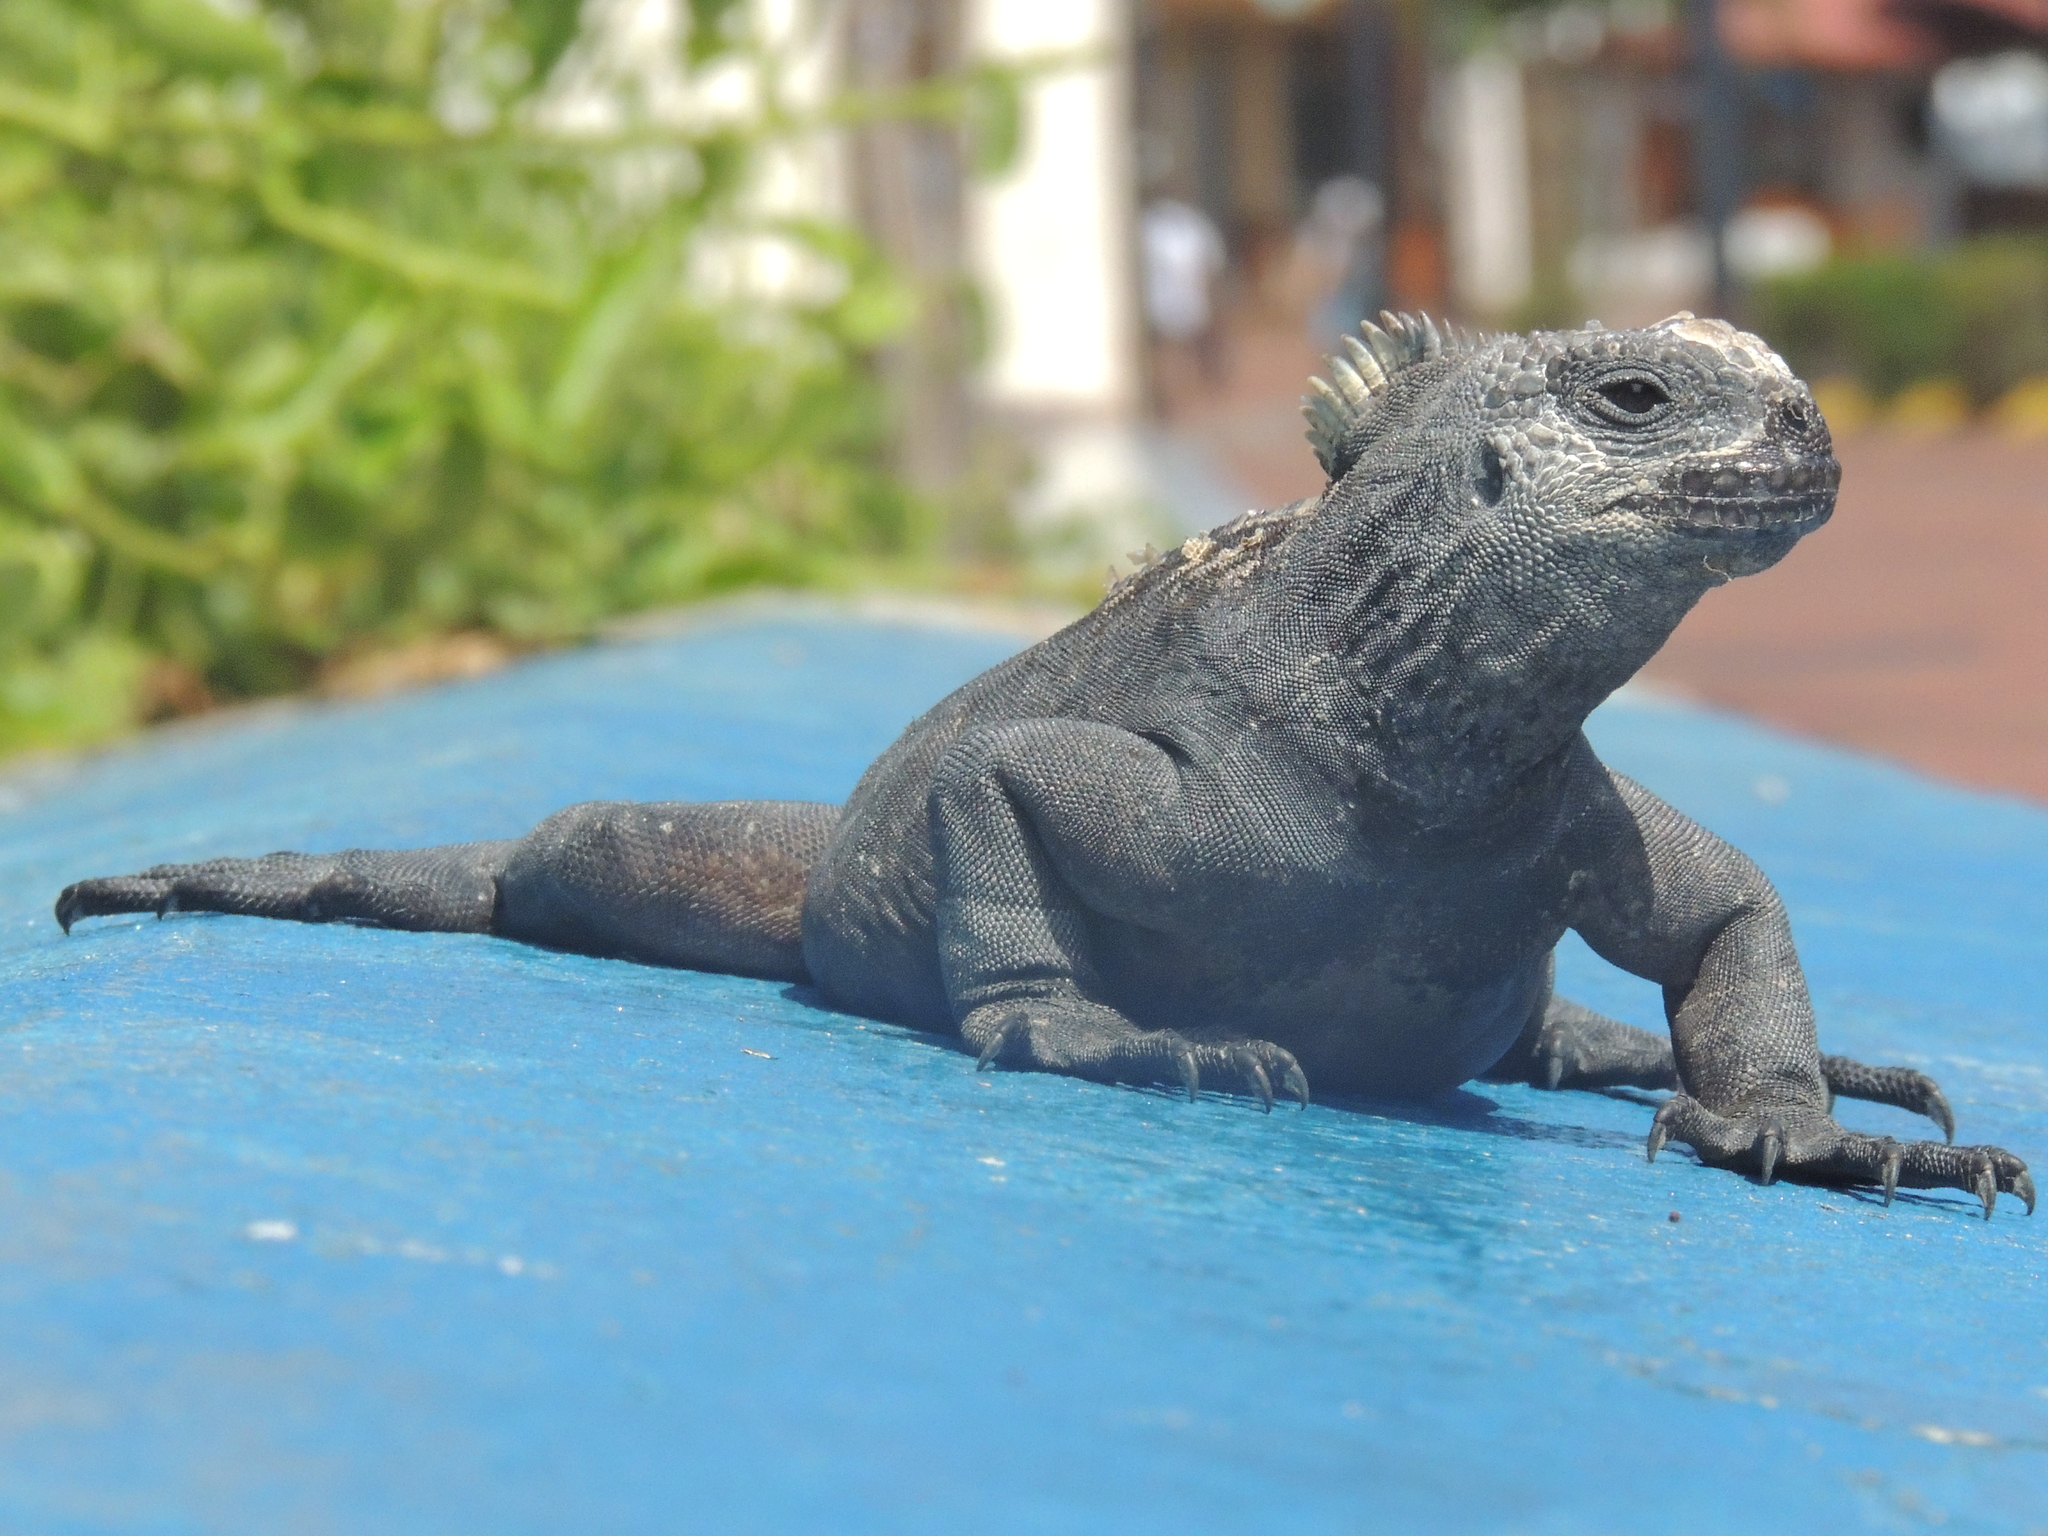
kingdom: Animalia
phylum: Chordata
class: Squamata
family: Iguanidae
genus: Amblyrhynchus
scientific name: Amblyrhynchus cristatus
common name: Marine iguana
